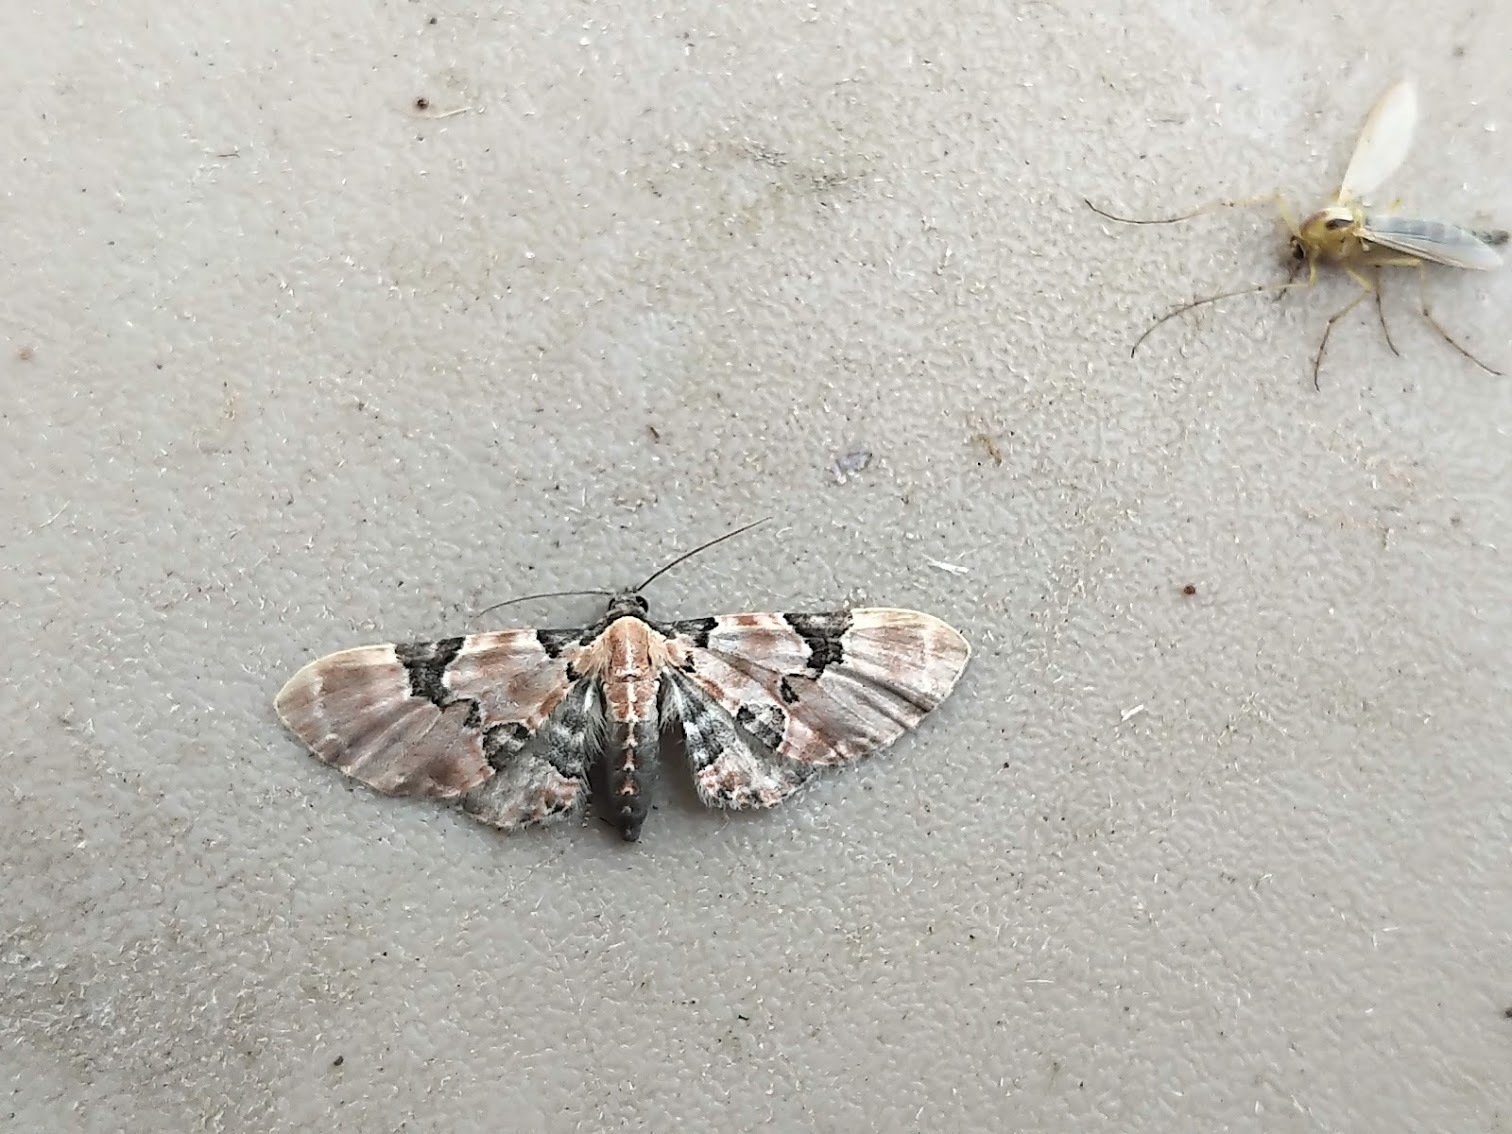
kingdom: Animalia
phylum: Arthropoda
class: Insecta
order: Lepidoptera
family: Geometridae
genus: Eupithecia
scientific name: Eupithecia stellata
